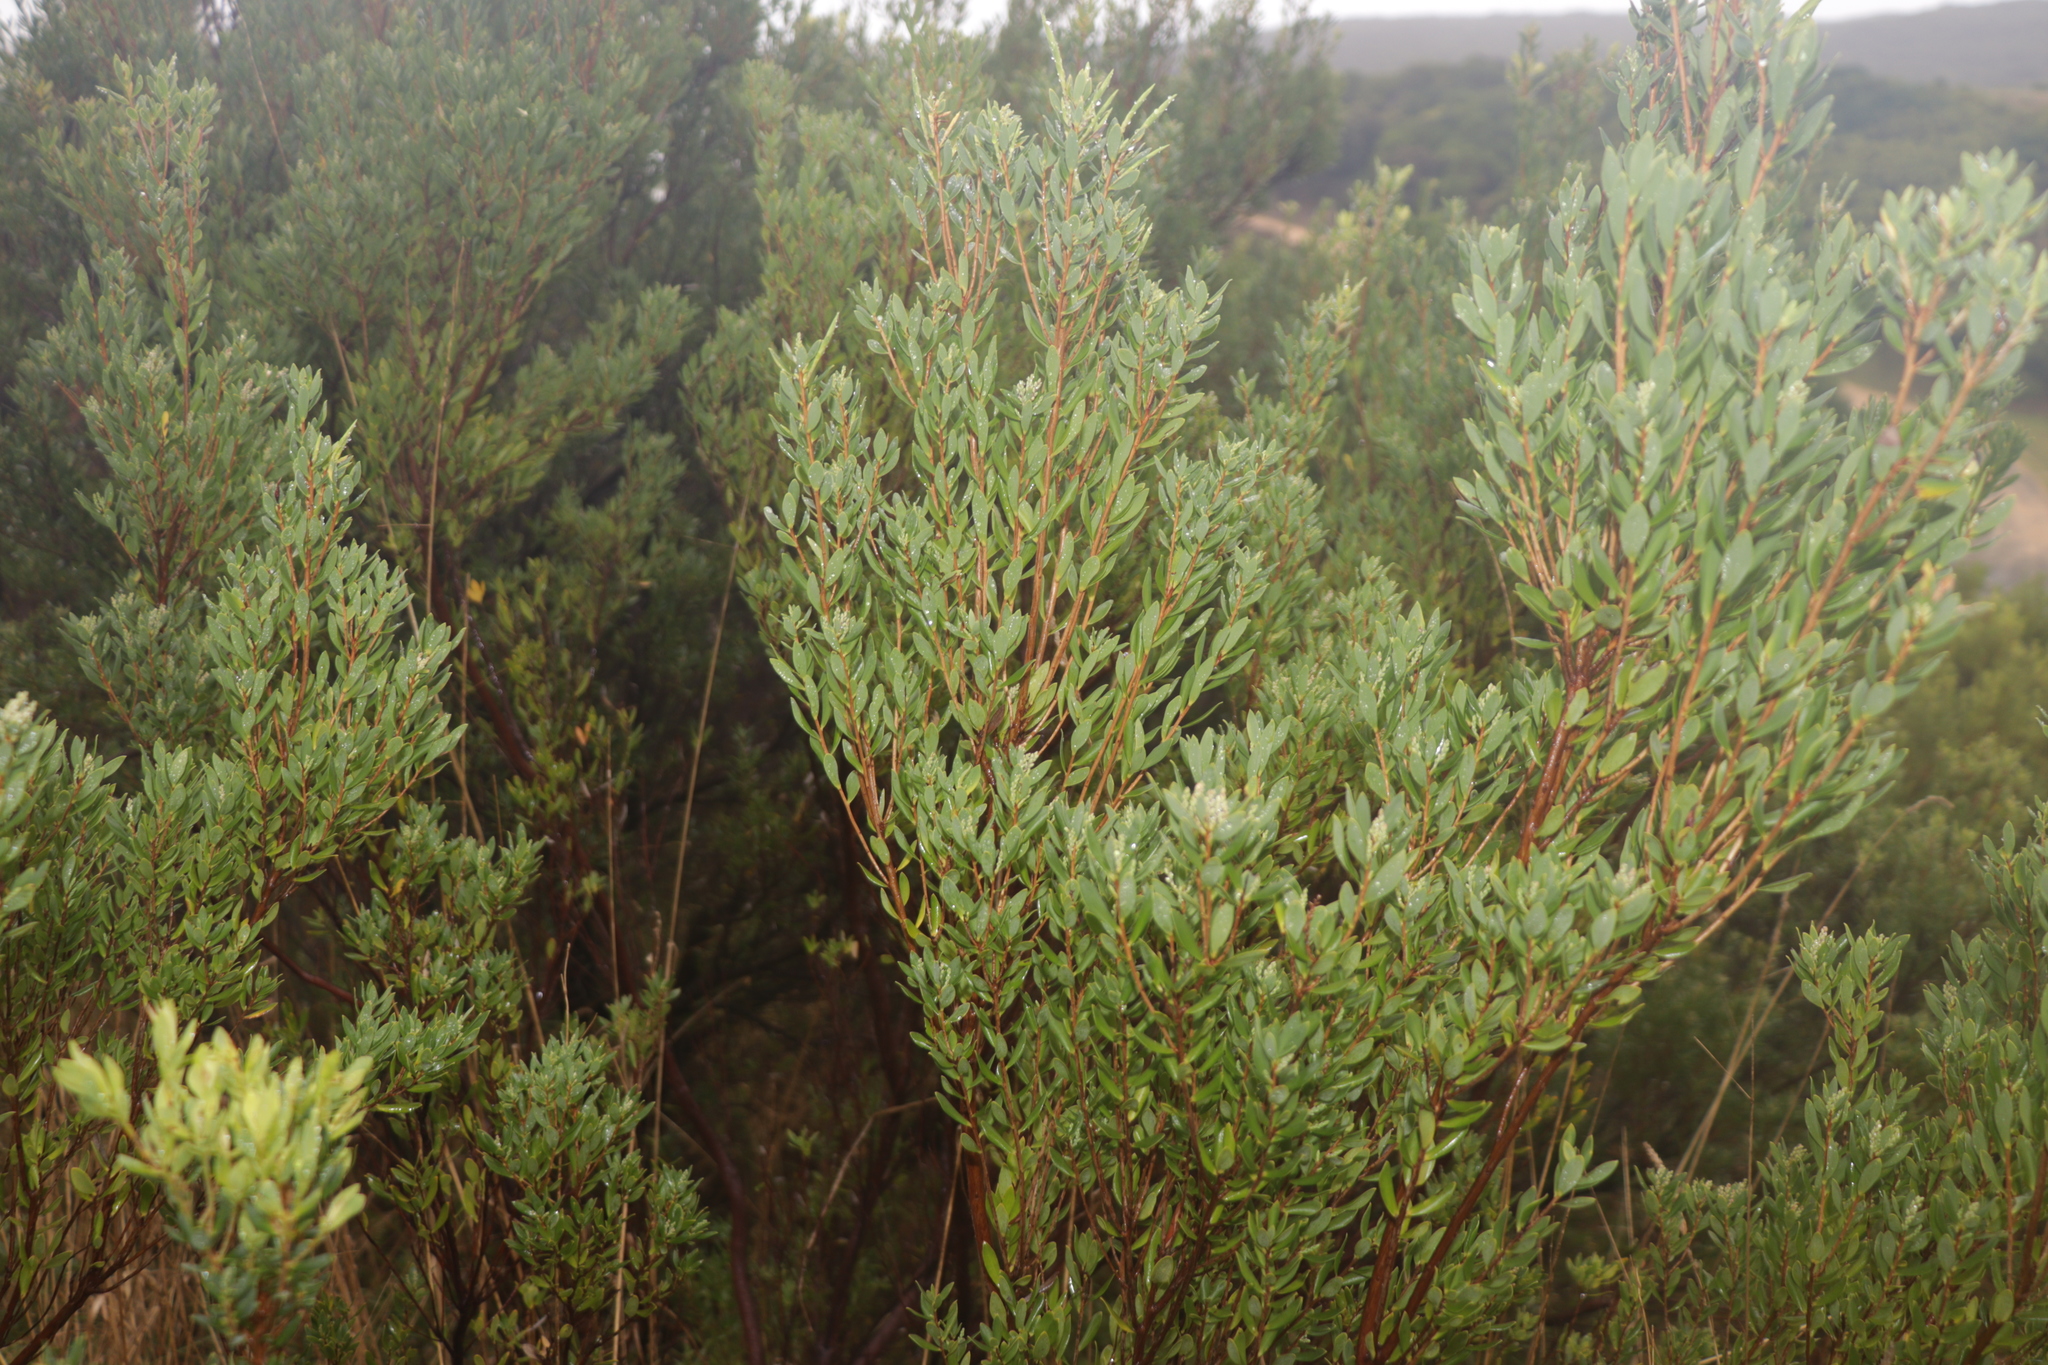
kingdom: Plantae
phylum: Tracheophyta
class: Magnoliopsida
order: Ericales
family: Ericaceae
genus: Leptecophylla
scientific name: Leptecophylla parvifolia
